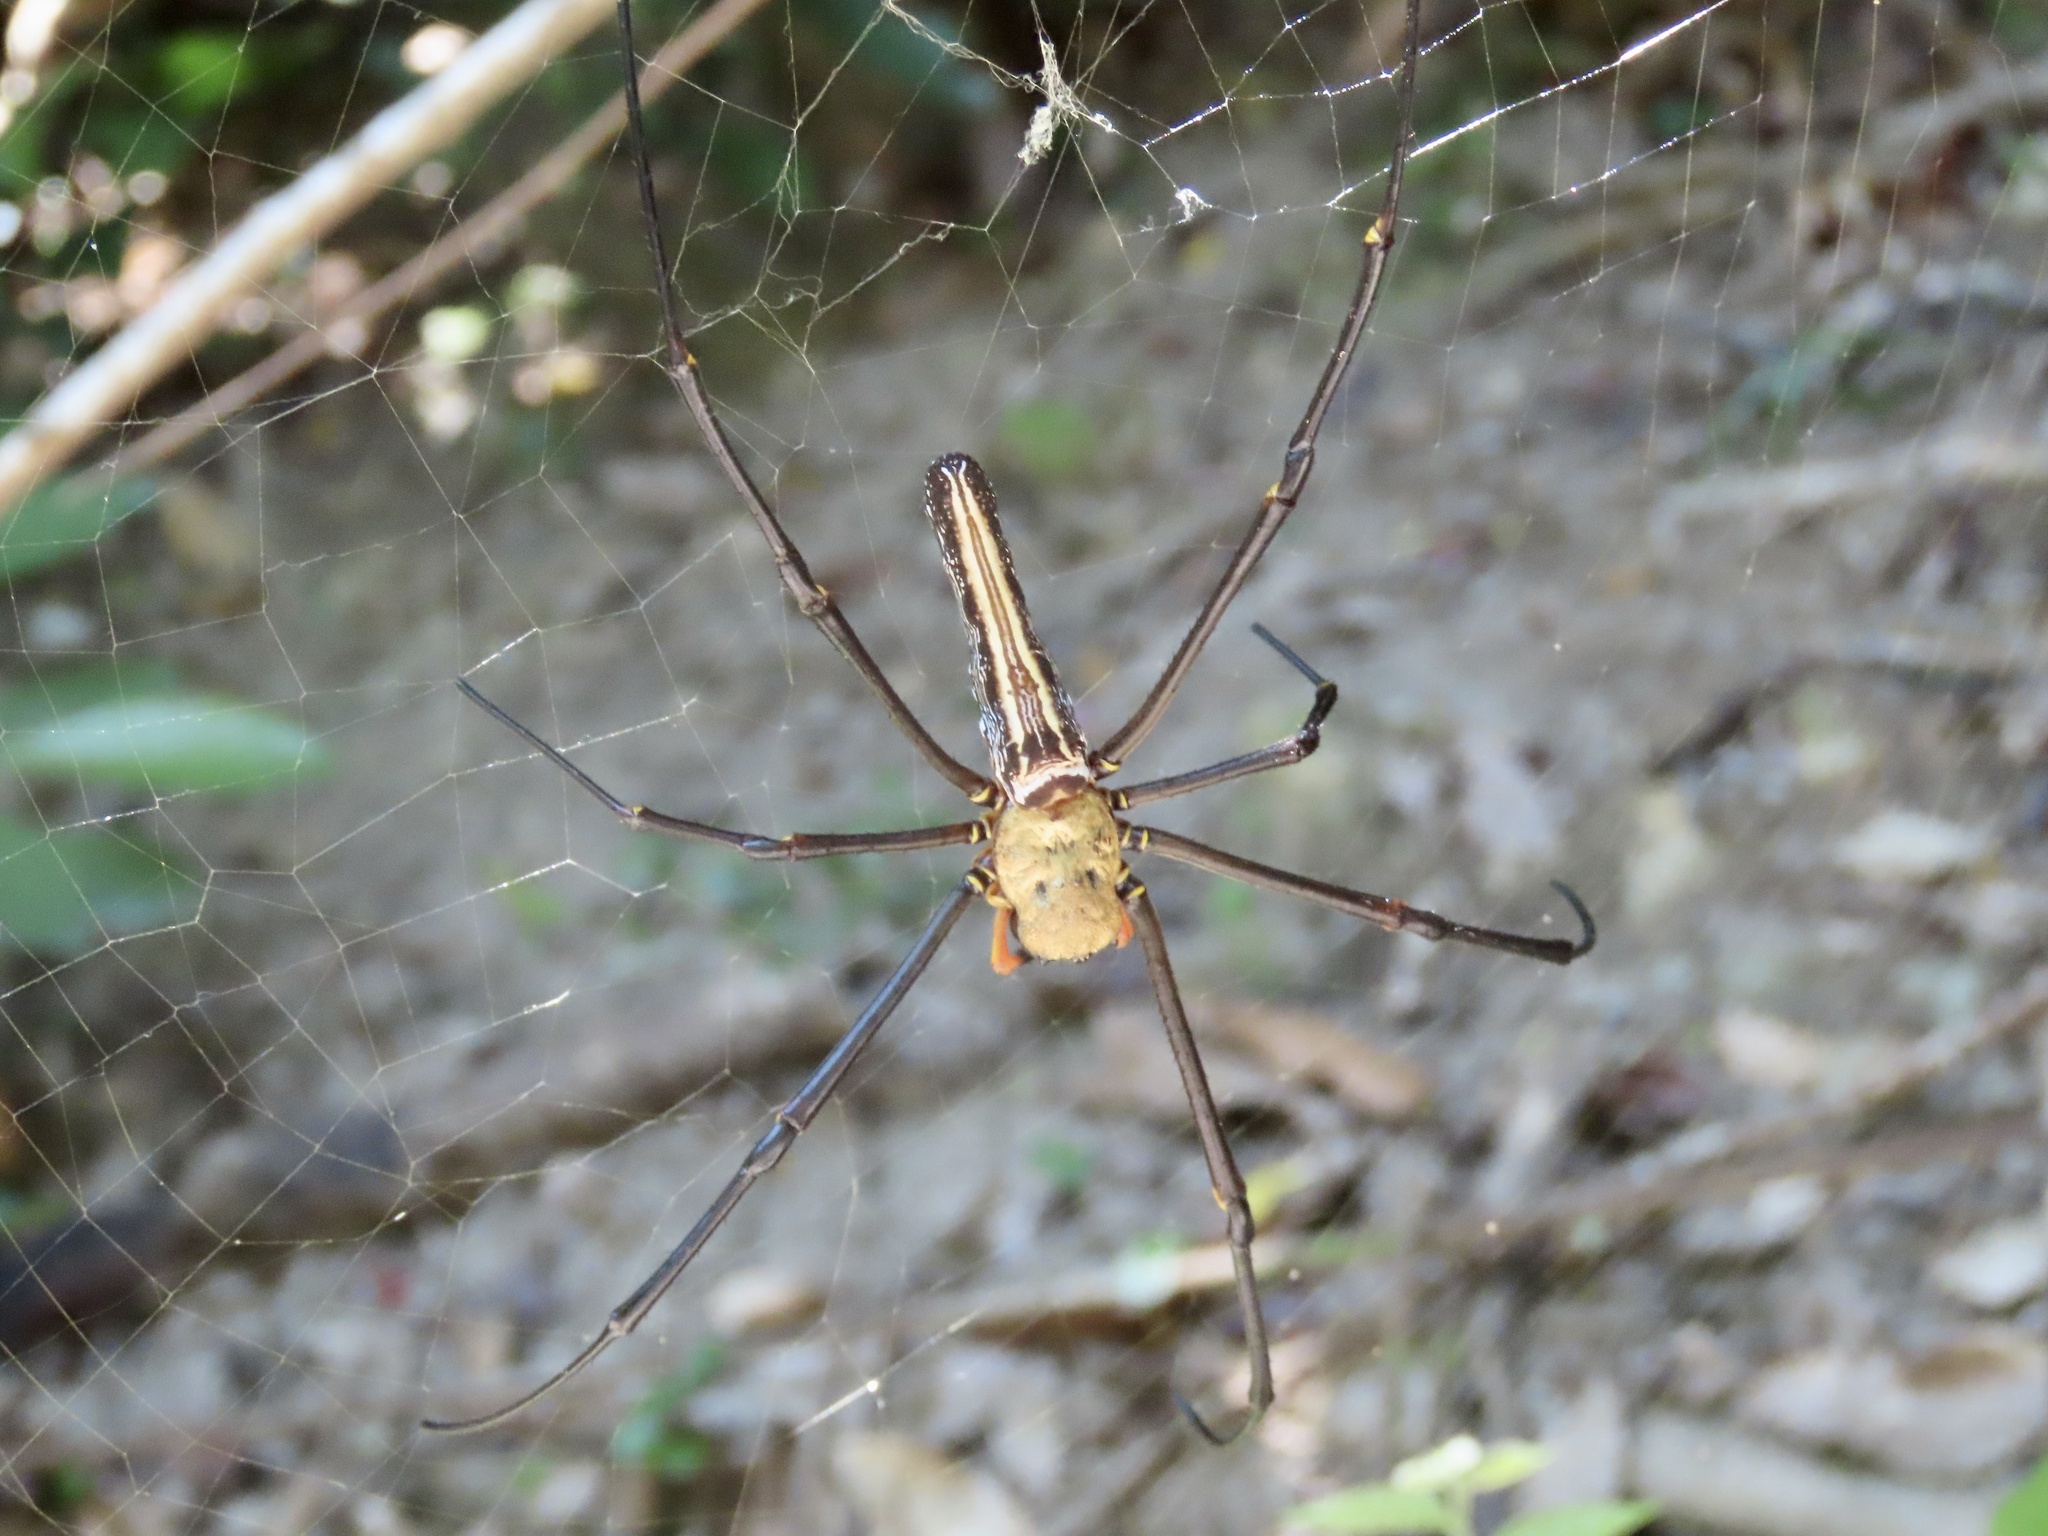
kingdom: Animalia
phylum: Arthropoda
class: Arachnida
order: Araneae
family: Araneidae
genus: Nephila
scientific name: Nephila pilipes
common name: Giant golden orb weaver
